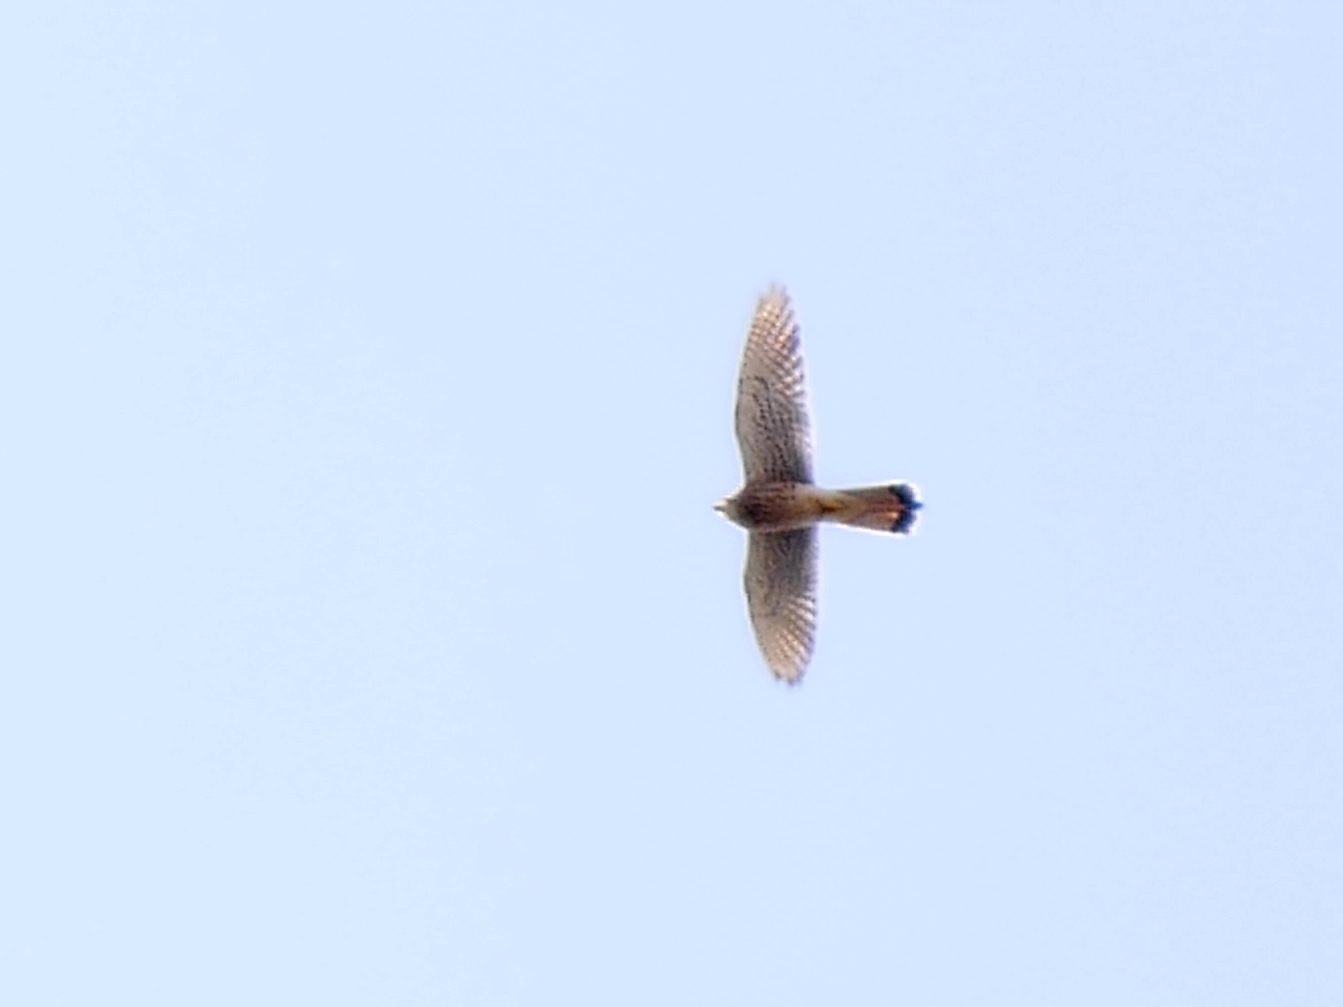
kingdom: Animalia
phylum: Chordata
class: Aves
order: Falconiformes
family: Falconidae
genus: Falco
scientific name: Falco tinnunculus
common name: Common kestrel
